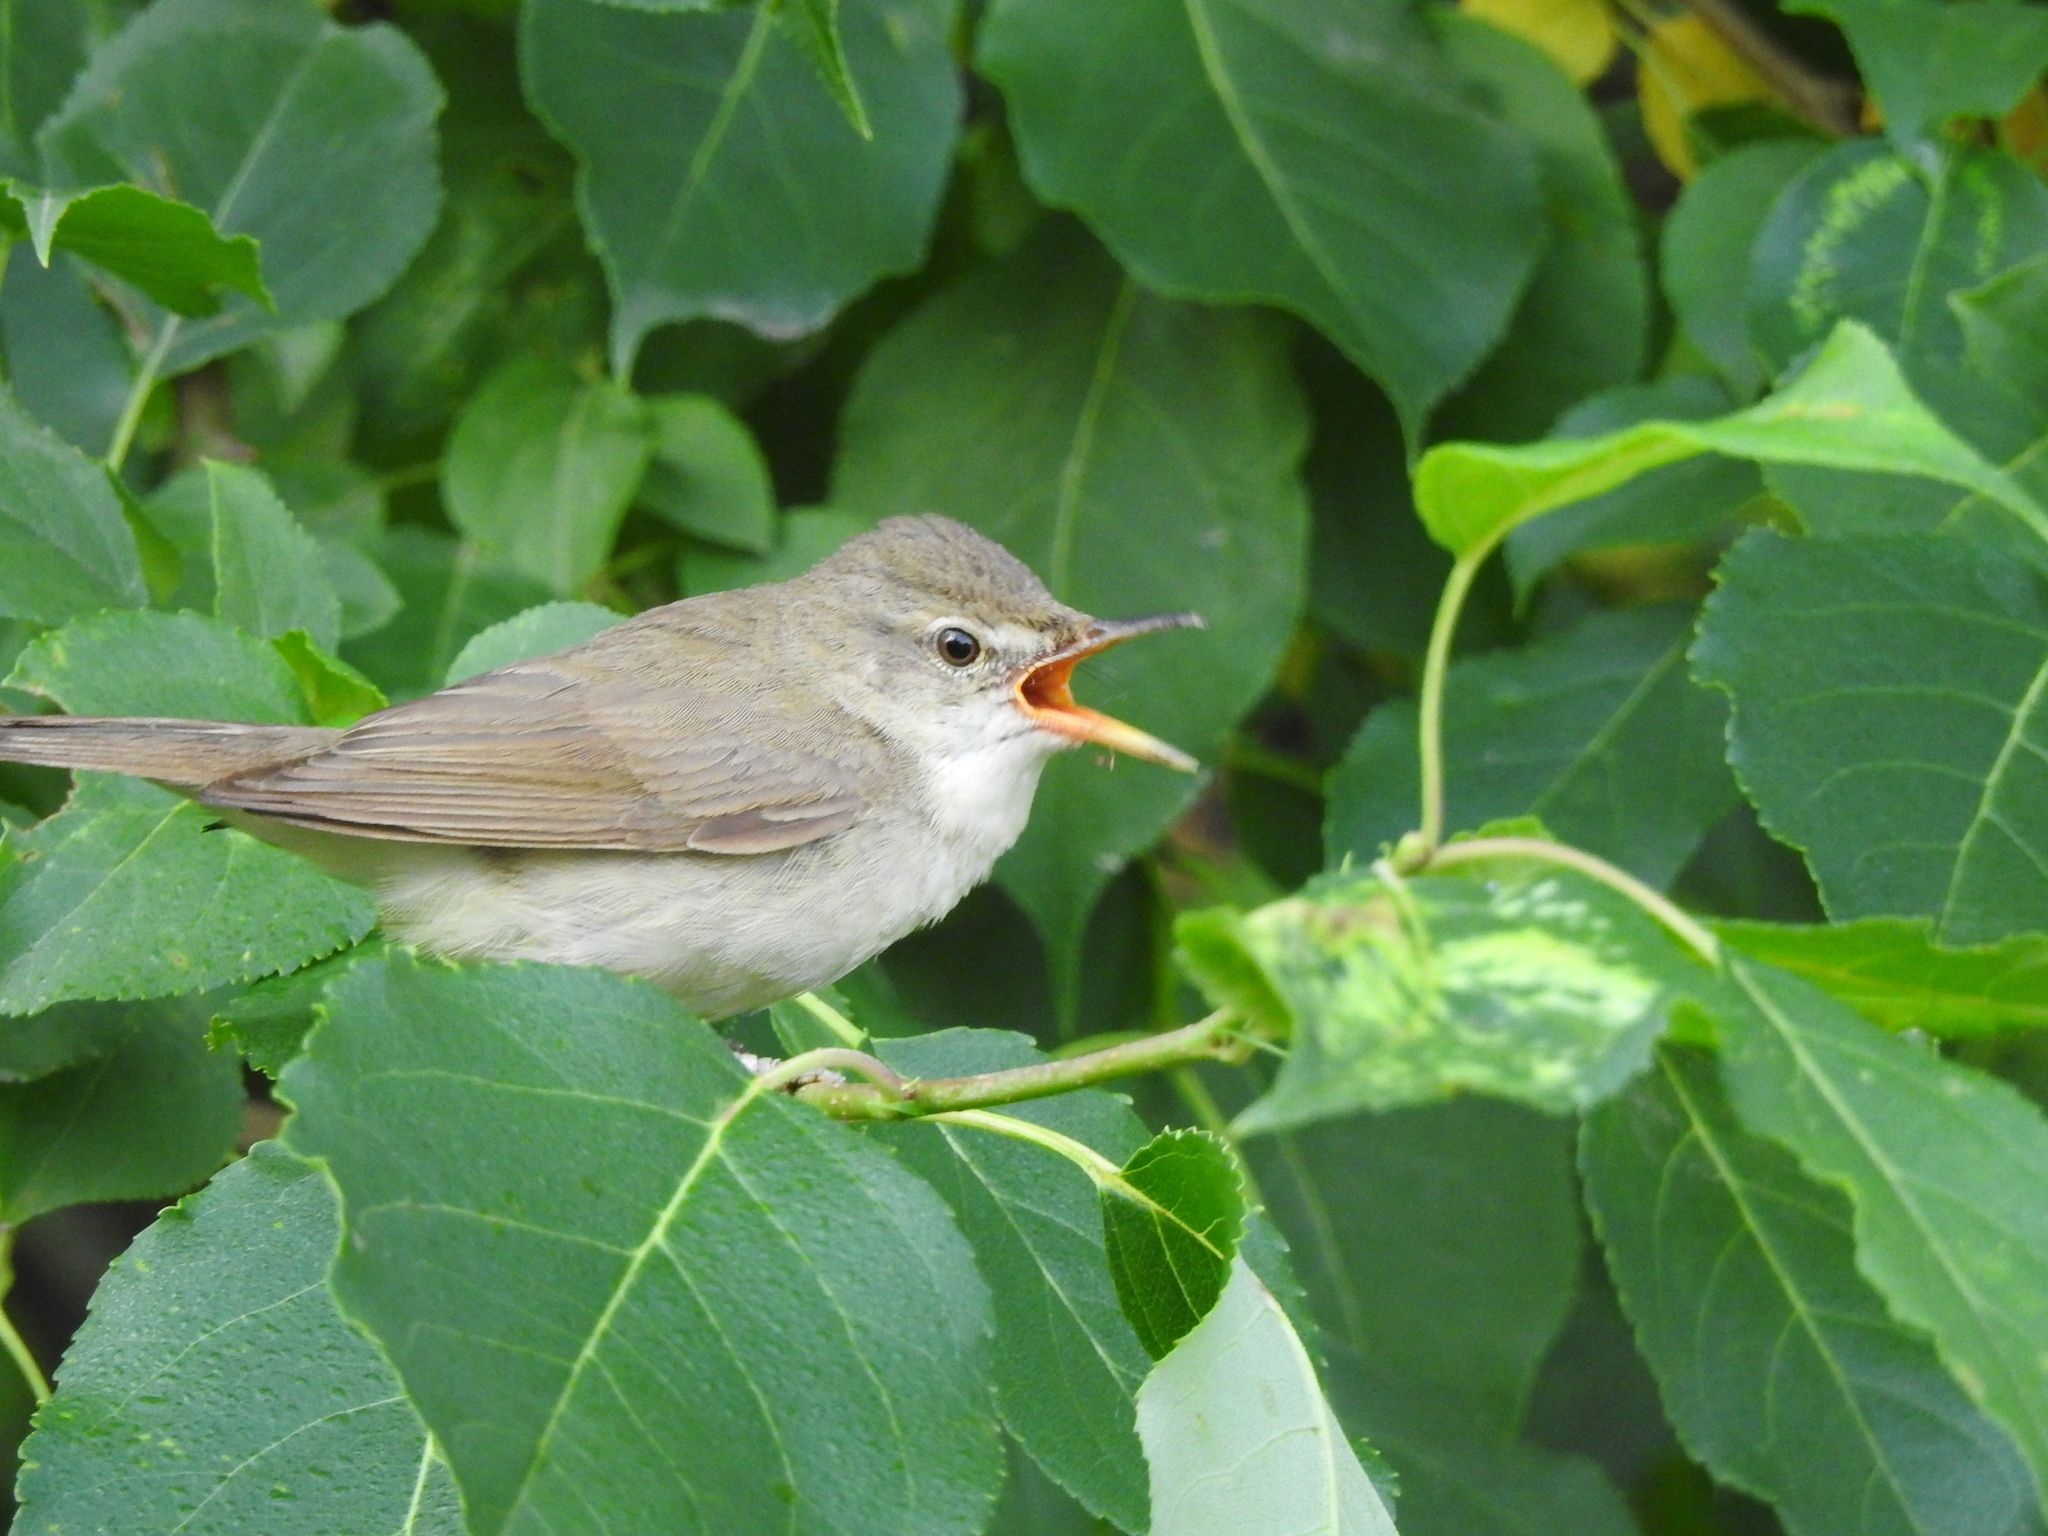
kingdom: Animalia
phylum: Chordata
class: Aves
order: Passeriformes
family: Acrocephalidae
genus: Acrocephalus
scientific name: Acrocephalus dumetorum
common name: Blyth's reed warbler
